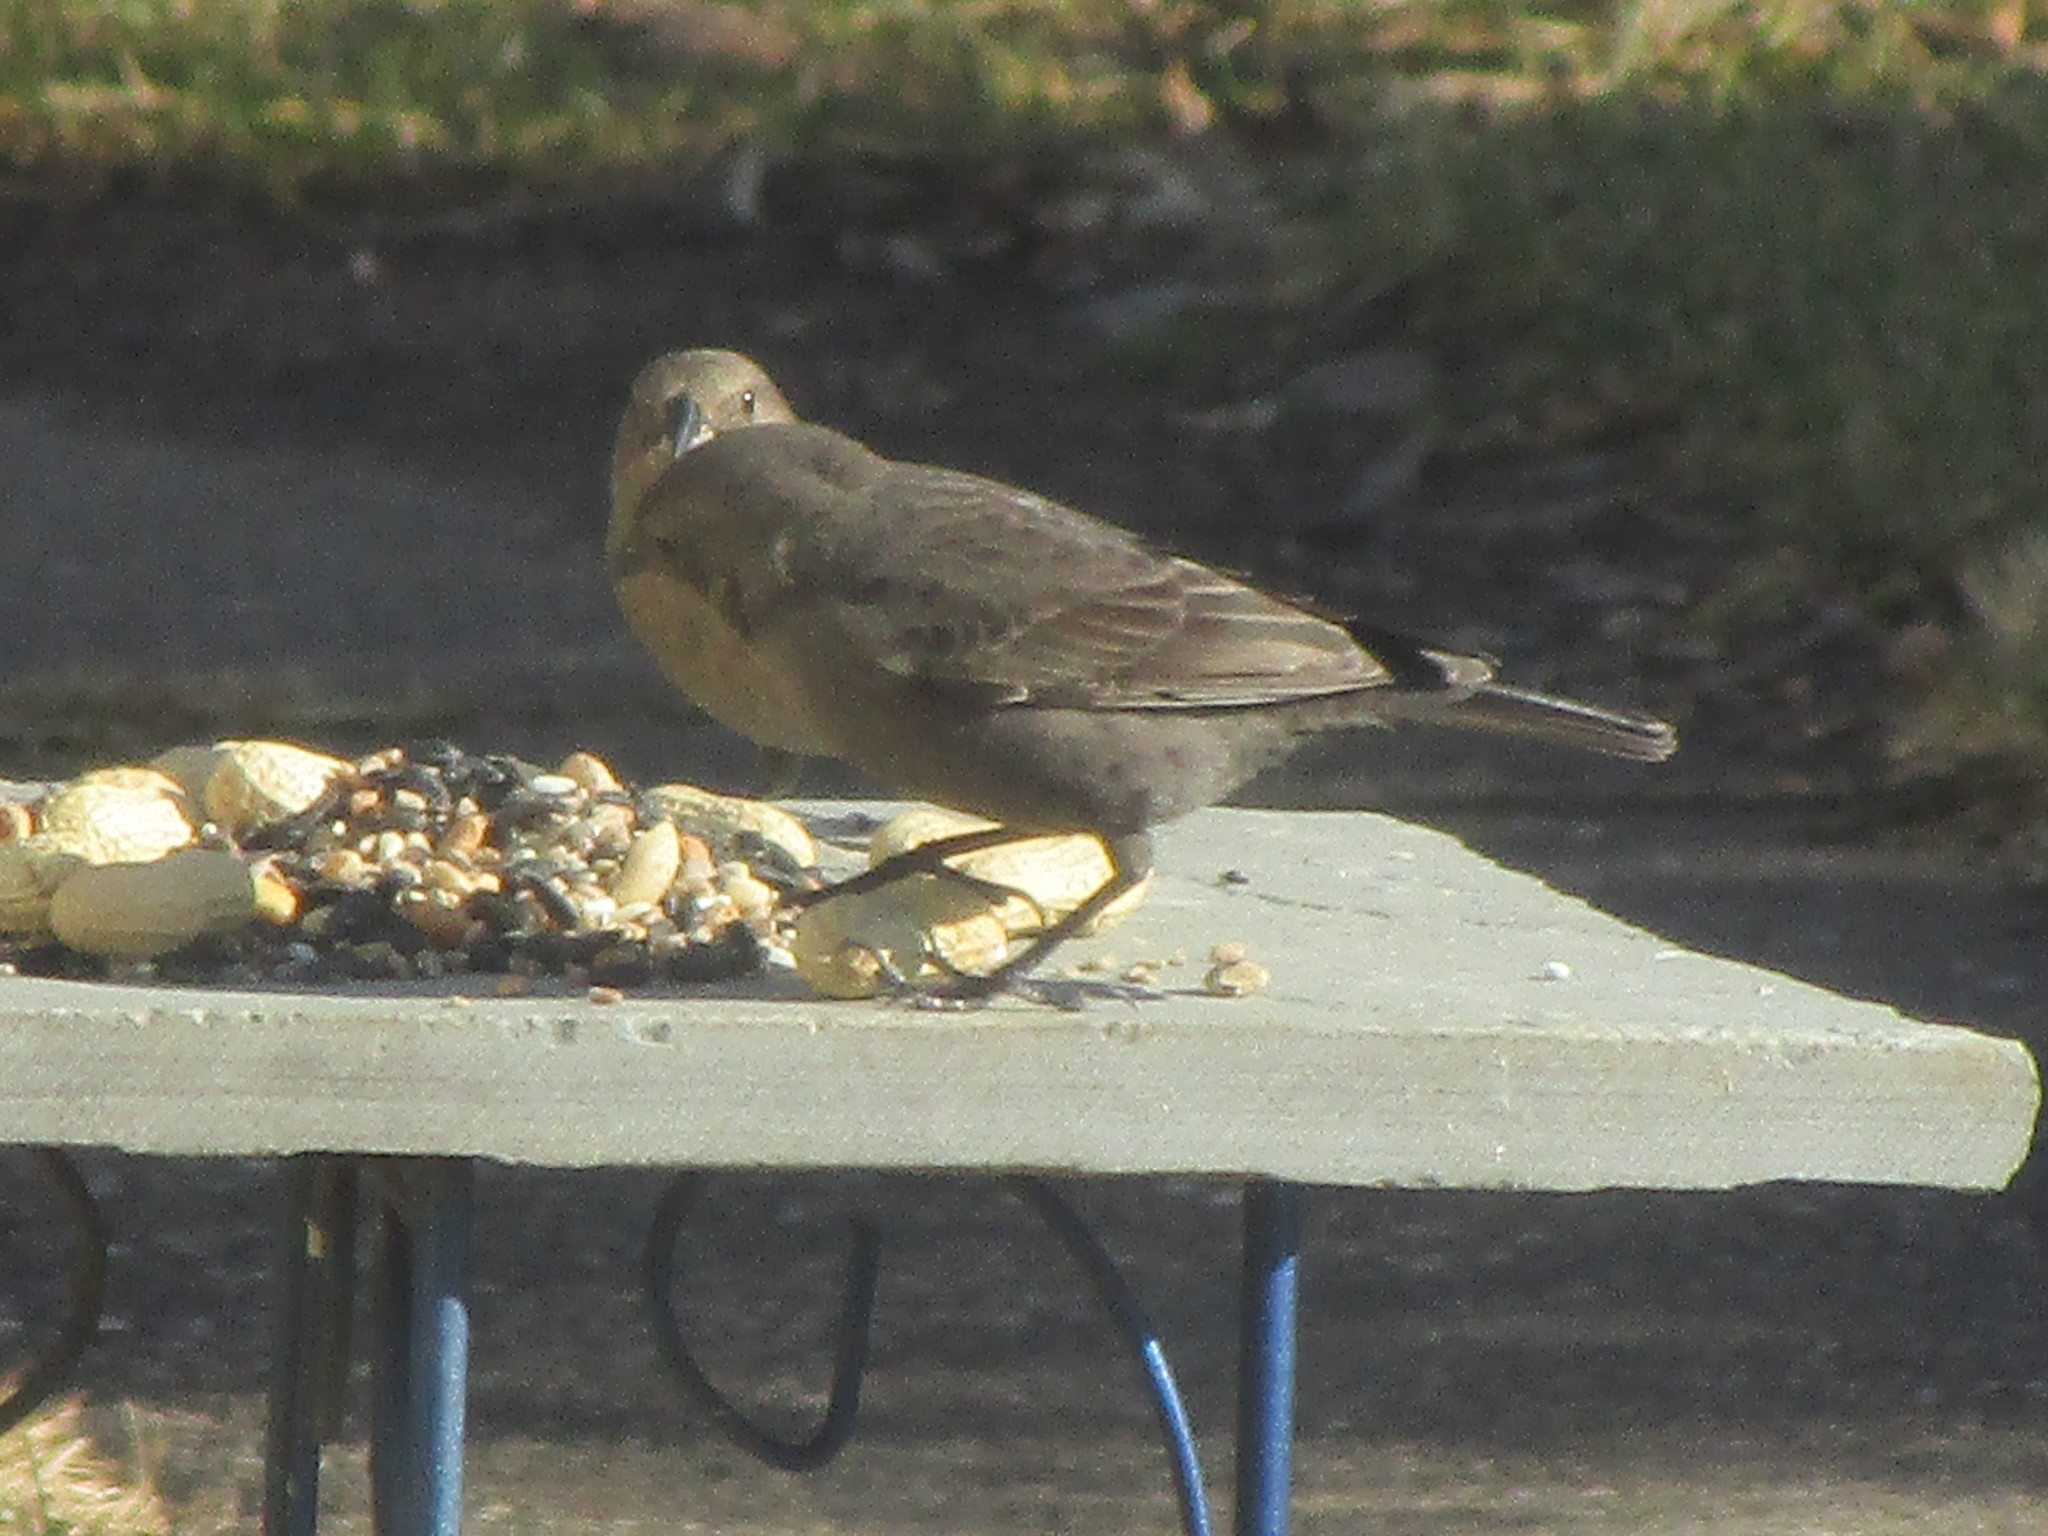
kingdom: Animalia
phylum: Chordata
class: Aves
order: Passeriformes
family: Icteridae
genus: Molothrus
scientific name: Molothrus ater
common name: Brown-headed cowbird
